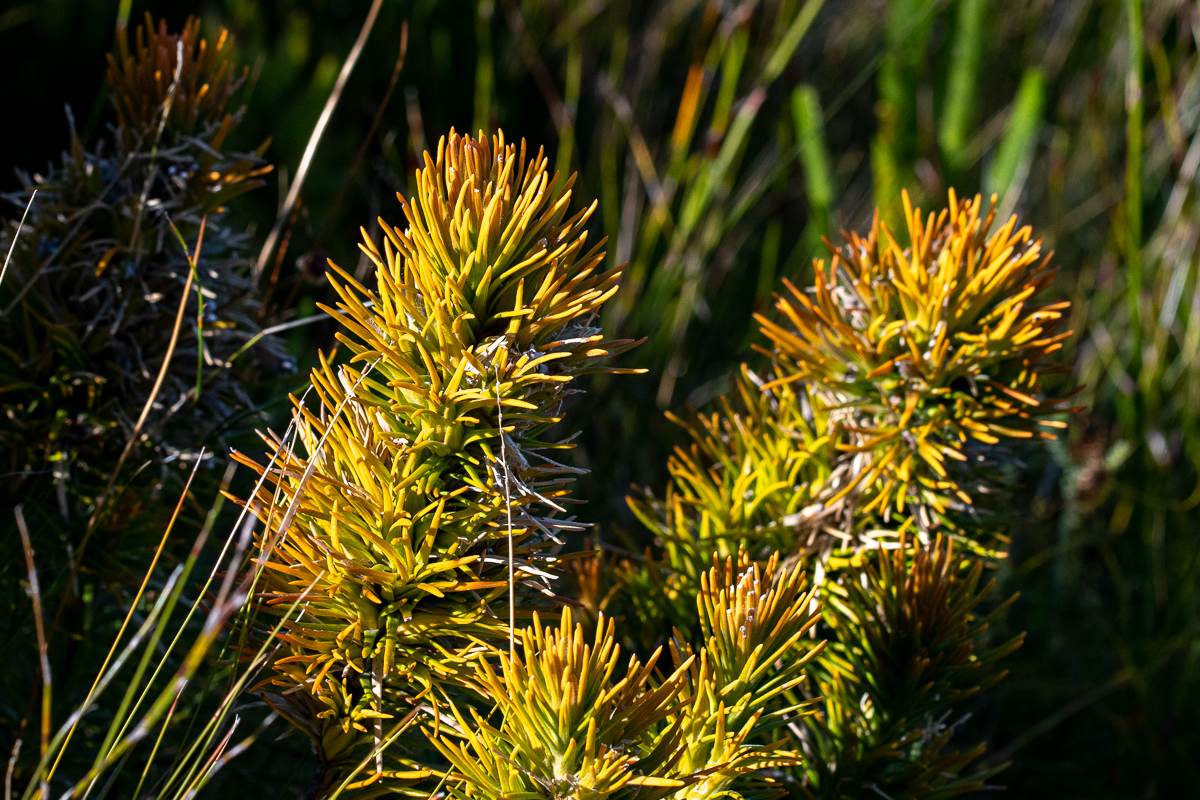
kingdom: Plantae
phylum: Tracheophyta
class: Magnoliopsida
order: Lamiales
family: Stilbaceae
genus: Retzia
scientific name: Retzia capensis
